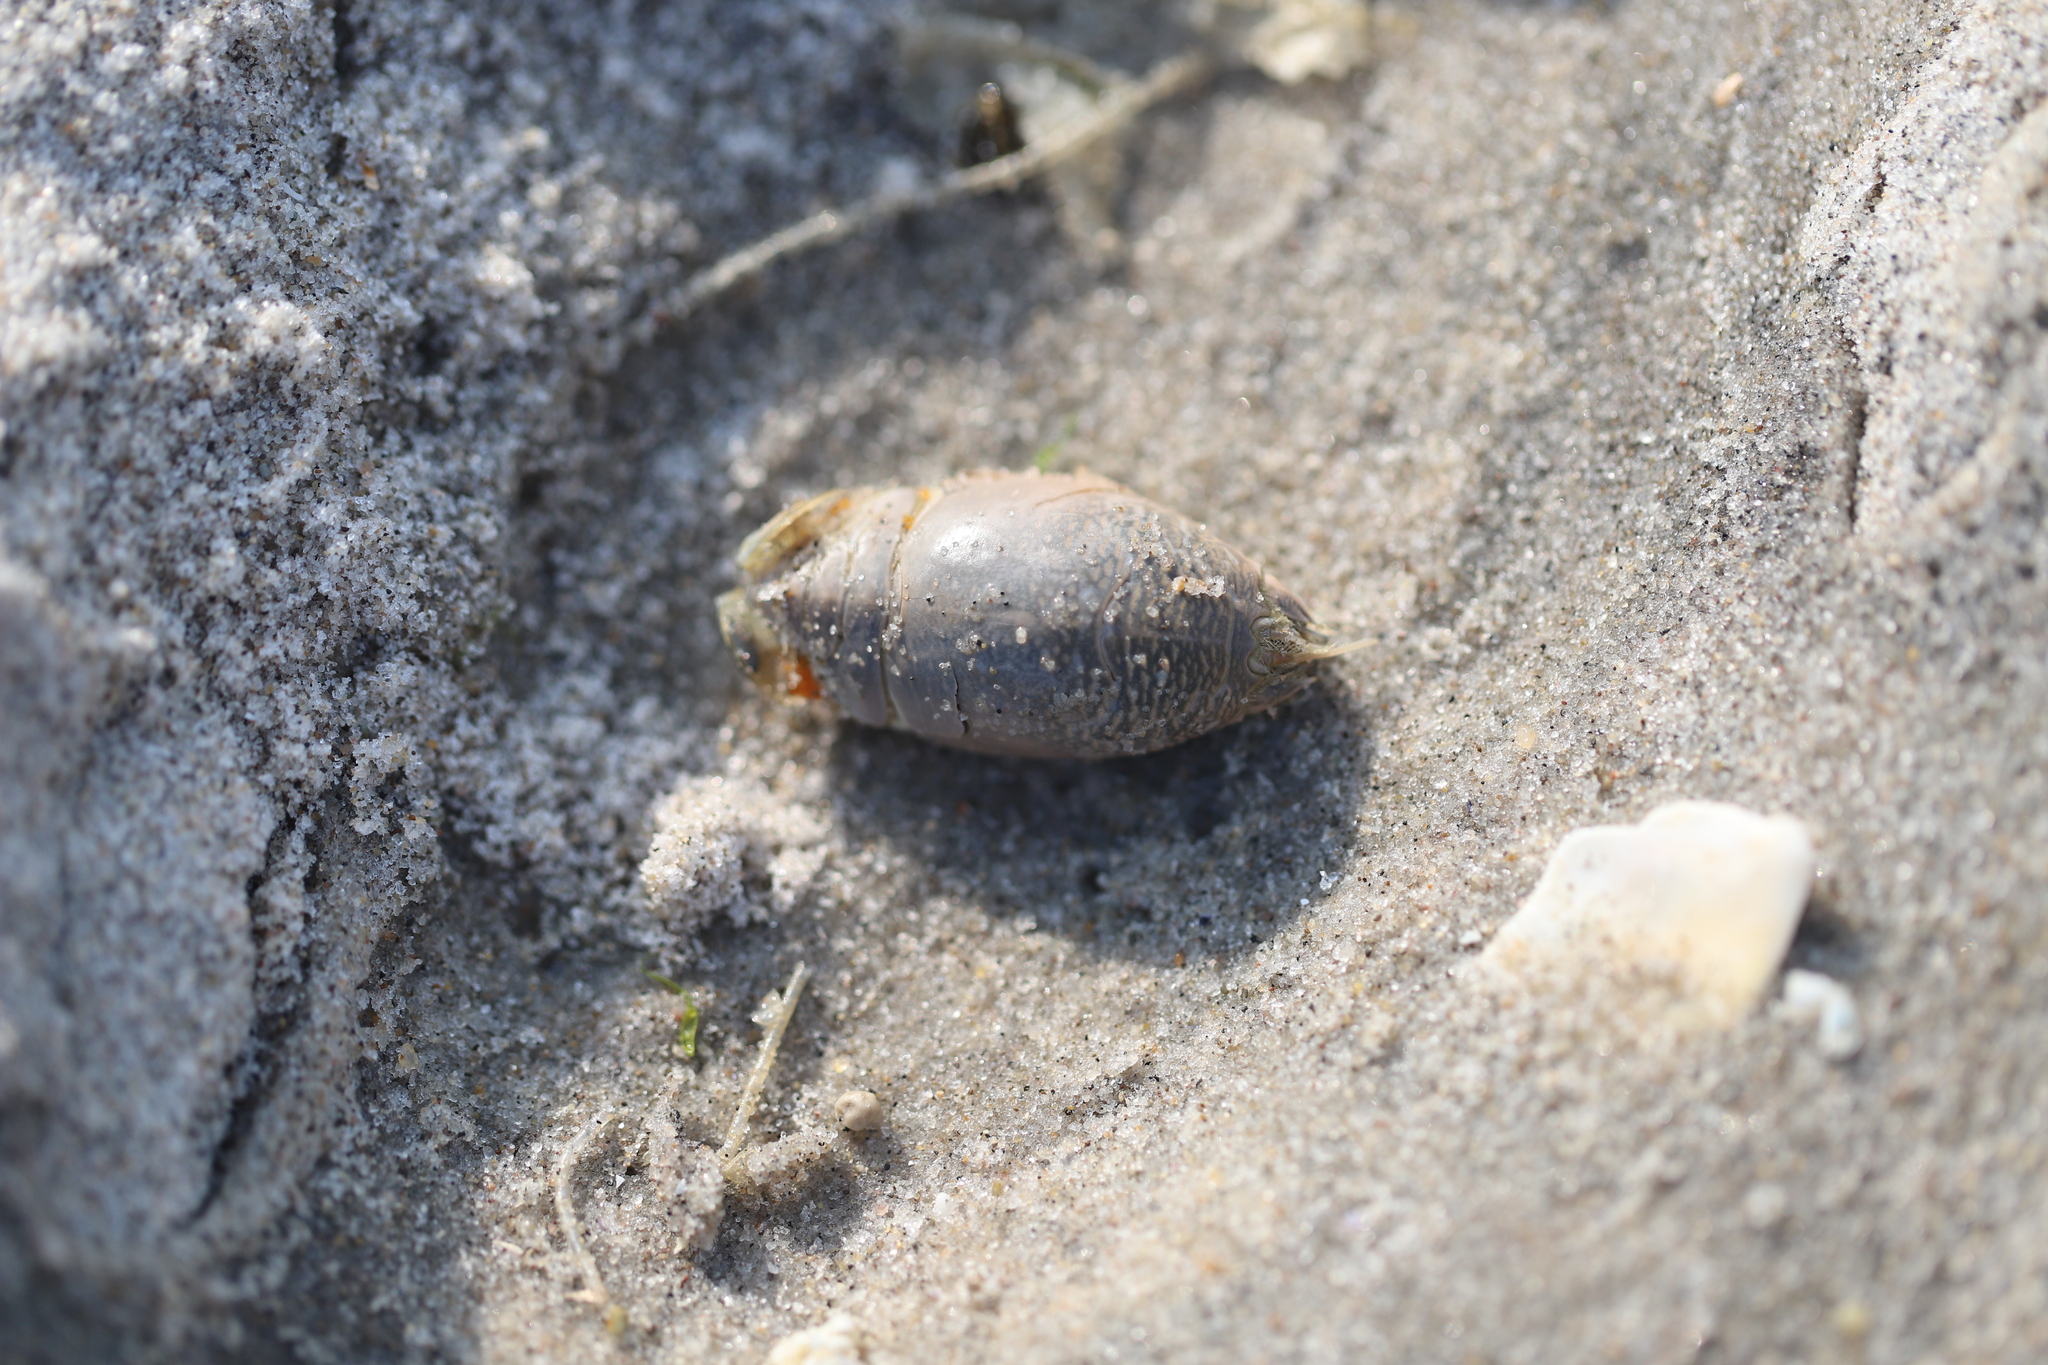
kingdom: Animalia
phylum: Arthropoda
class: Malacostraca
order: Decapoda
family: Hippidae
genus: Emerita
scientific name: Emerita talpoida
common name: Atlantic sand crab
